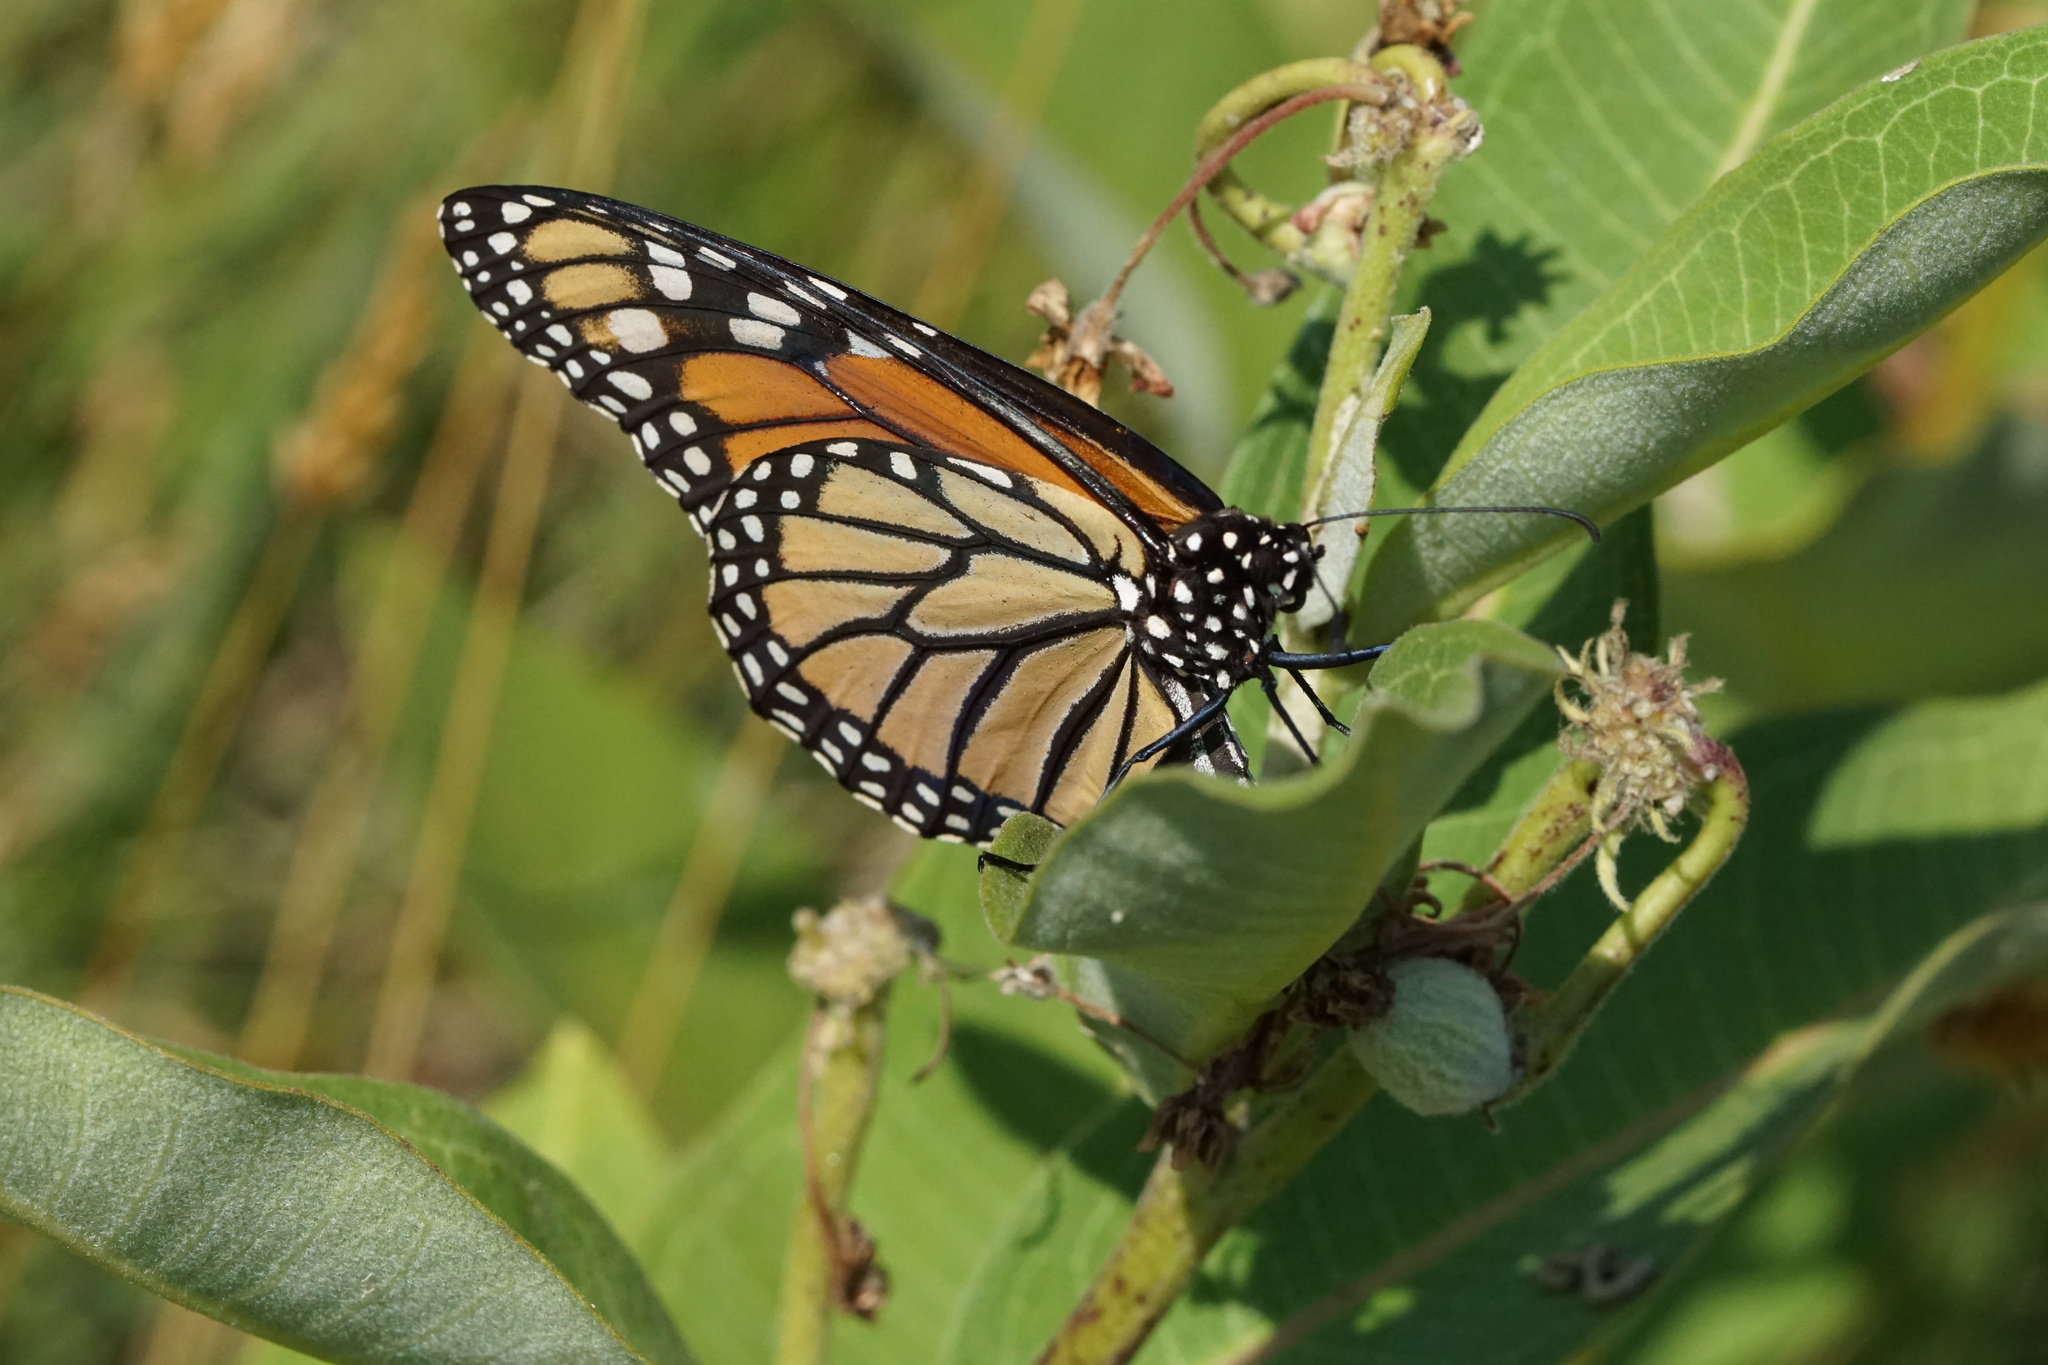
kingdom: Animalia
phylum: Arthropoda
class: Insecta
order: Lepidoptera
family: Nymphalidae
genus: Danaus
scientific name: Danaus plexippus
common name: Monarch
